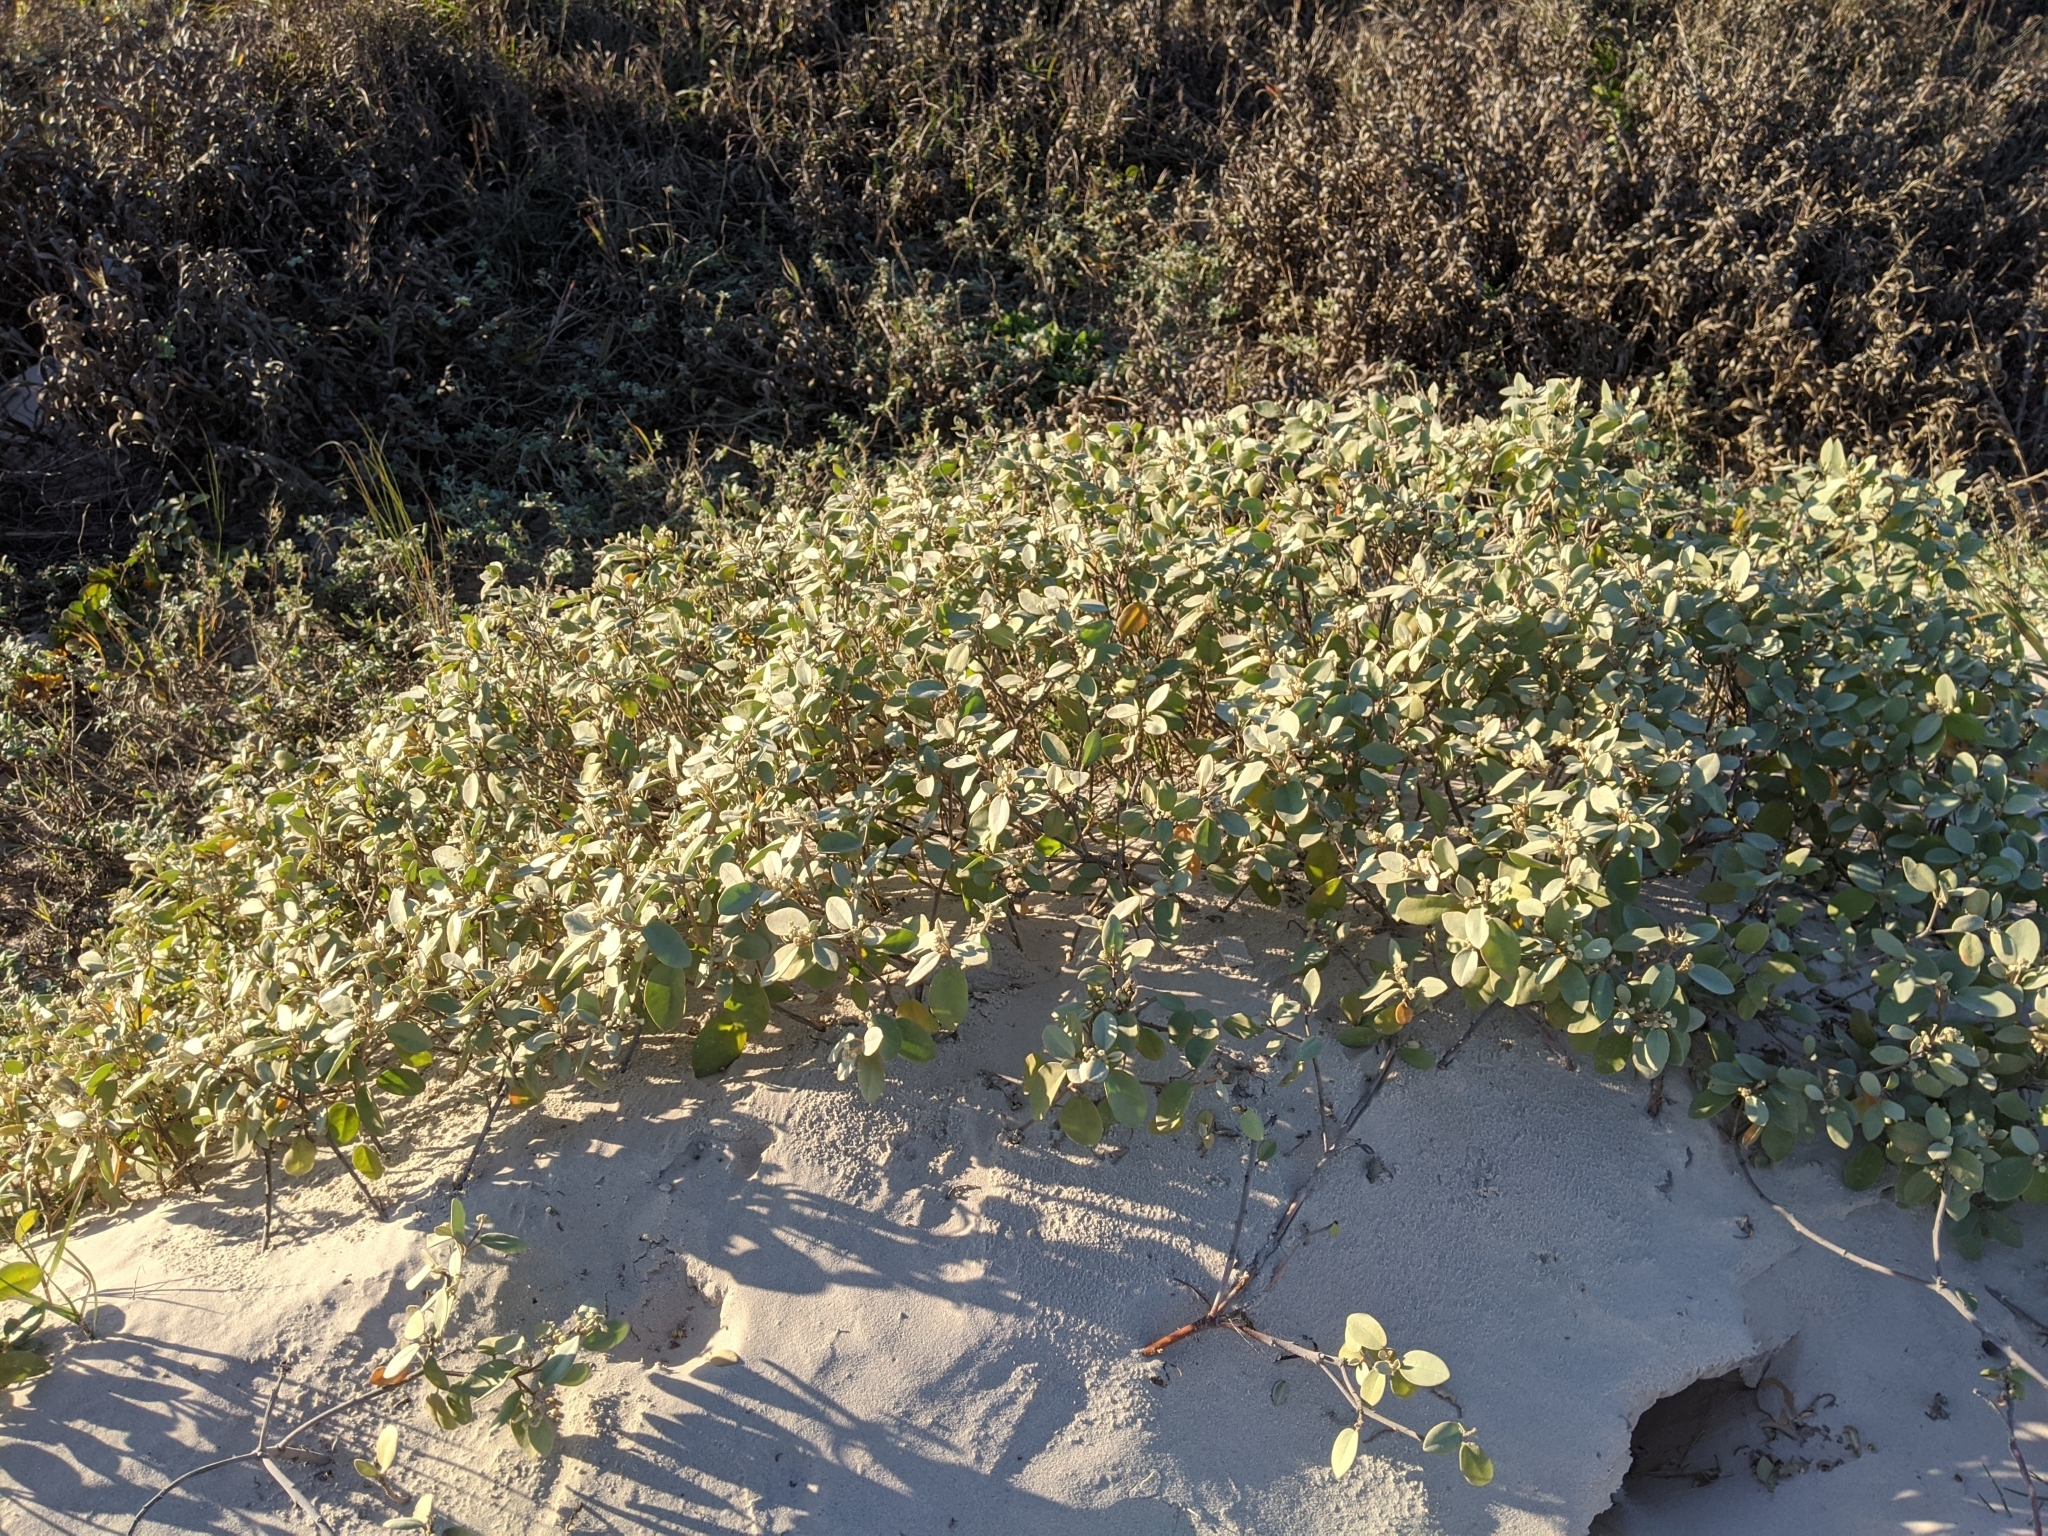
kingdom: Plantae
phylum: Tracheophyta
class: Magnoliopsida
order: Malpighiales
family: Euphorbiaceae
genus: Croton
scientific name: Croton punctatus
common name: Beach-tea
